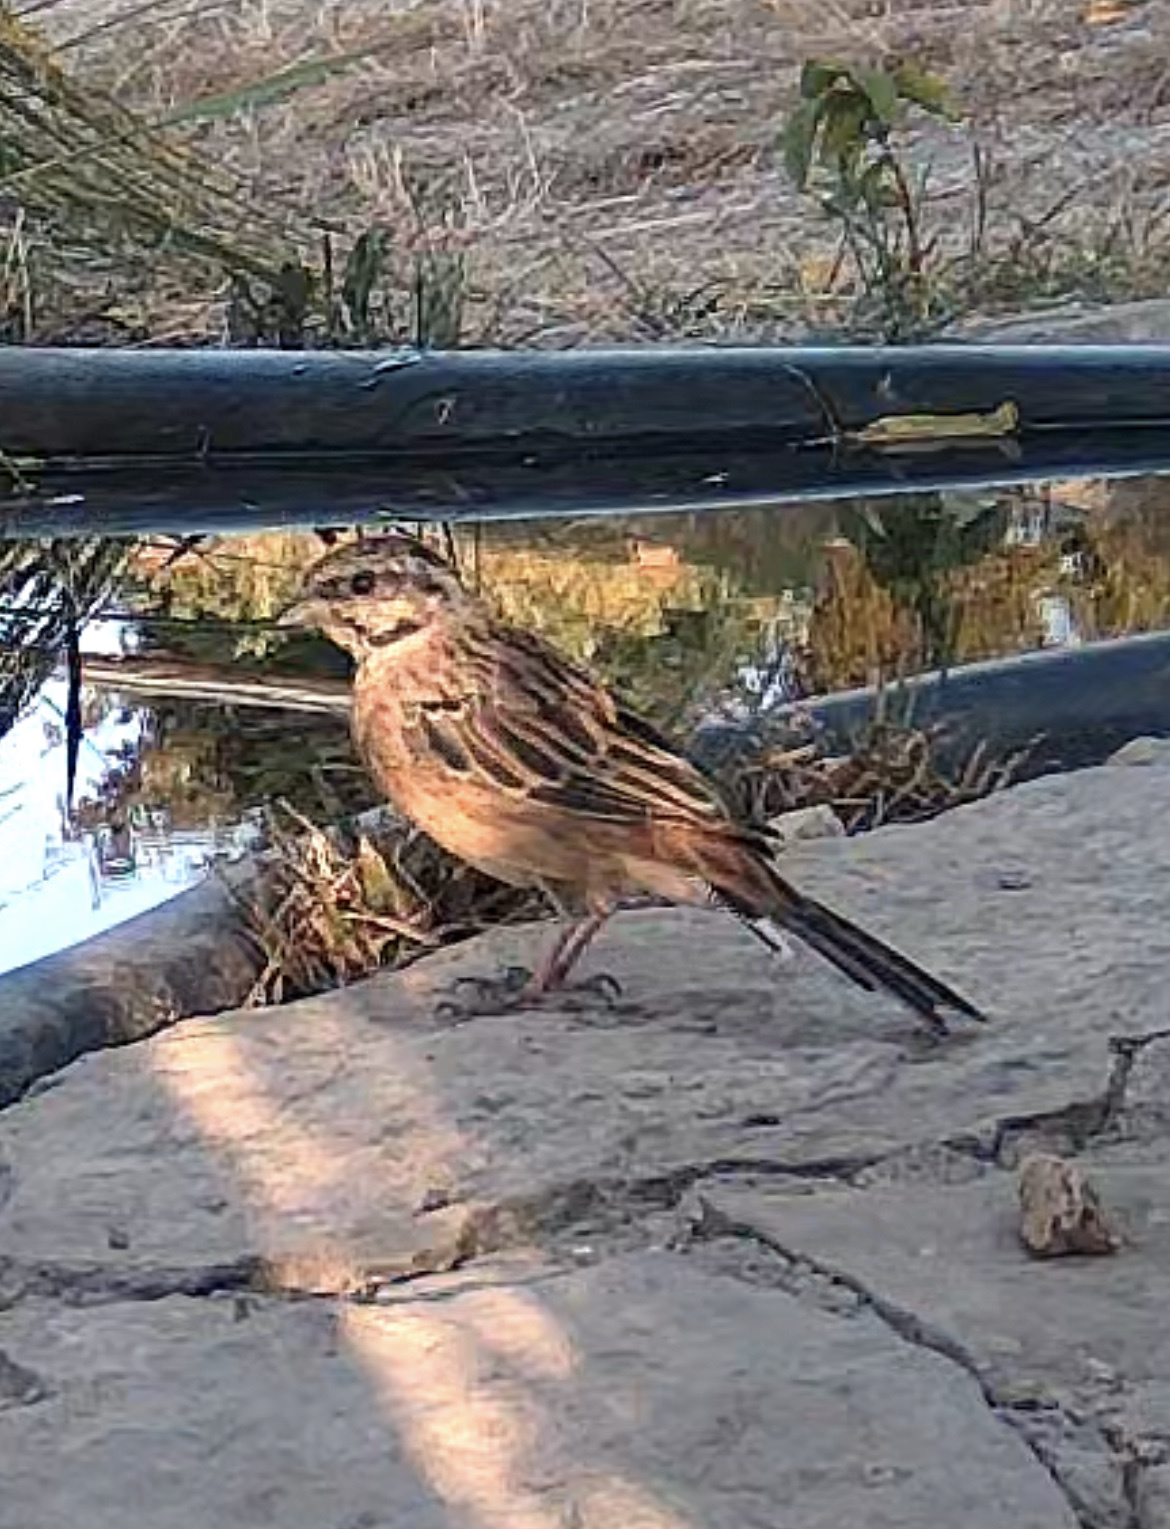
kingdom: Animalia
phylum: Chordata
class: Aves
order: Passeriformes
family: Emberizidae
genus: Emberiza
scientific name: Emberiza cia
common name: Rock bunting
